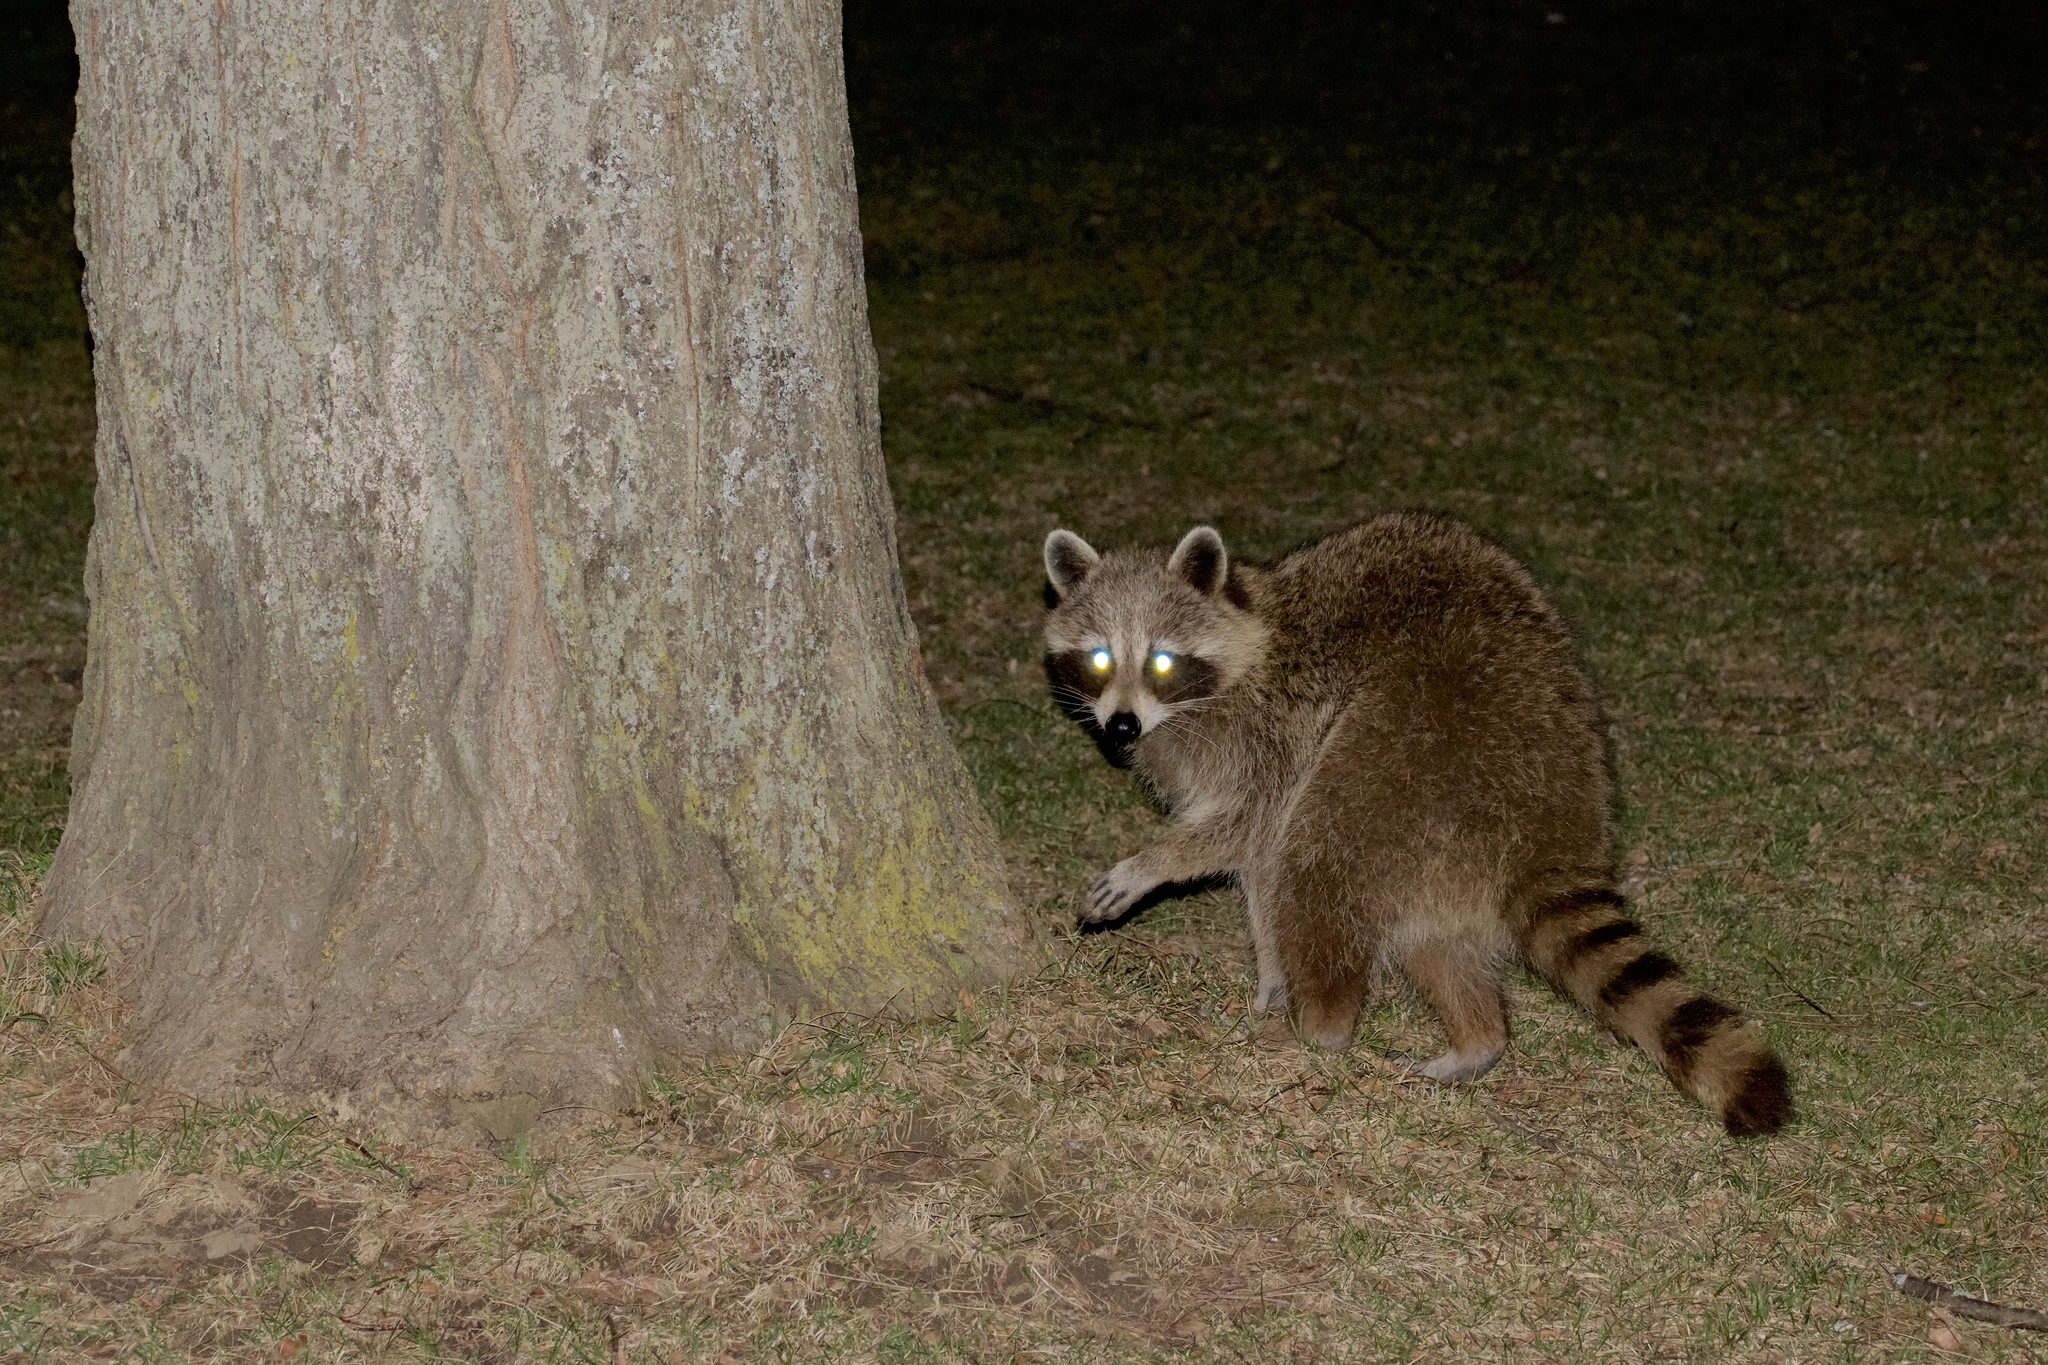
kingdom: Animalia
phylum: Chordata
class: Mammalia
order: Carnivora
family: Procyonidae
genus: Procyon
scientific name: Procyon lotor
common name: Raccoon
